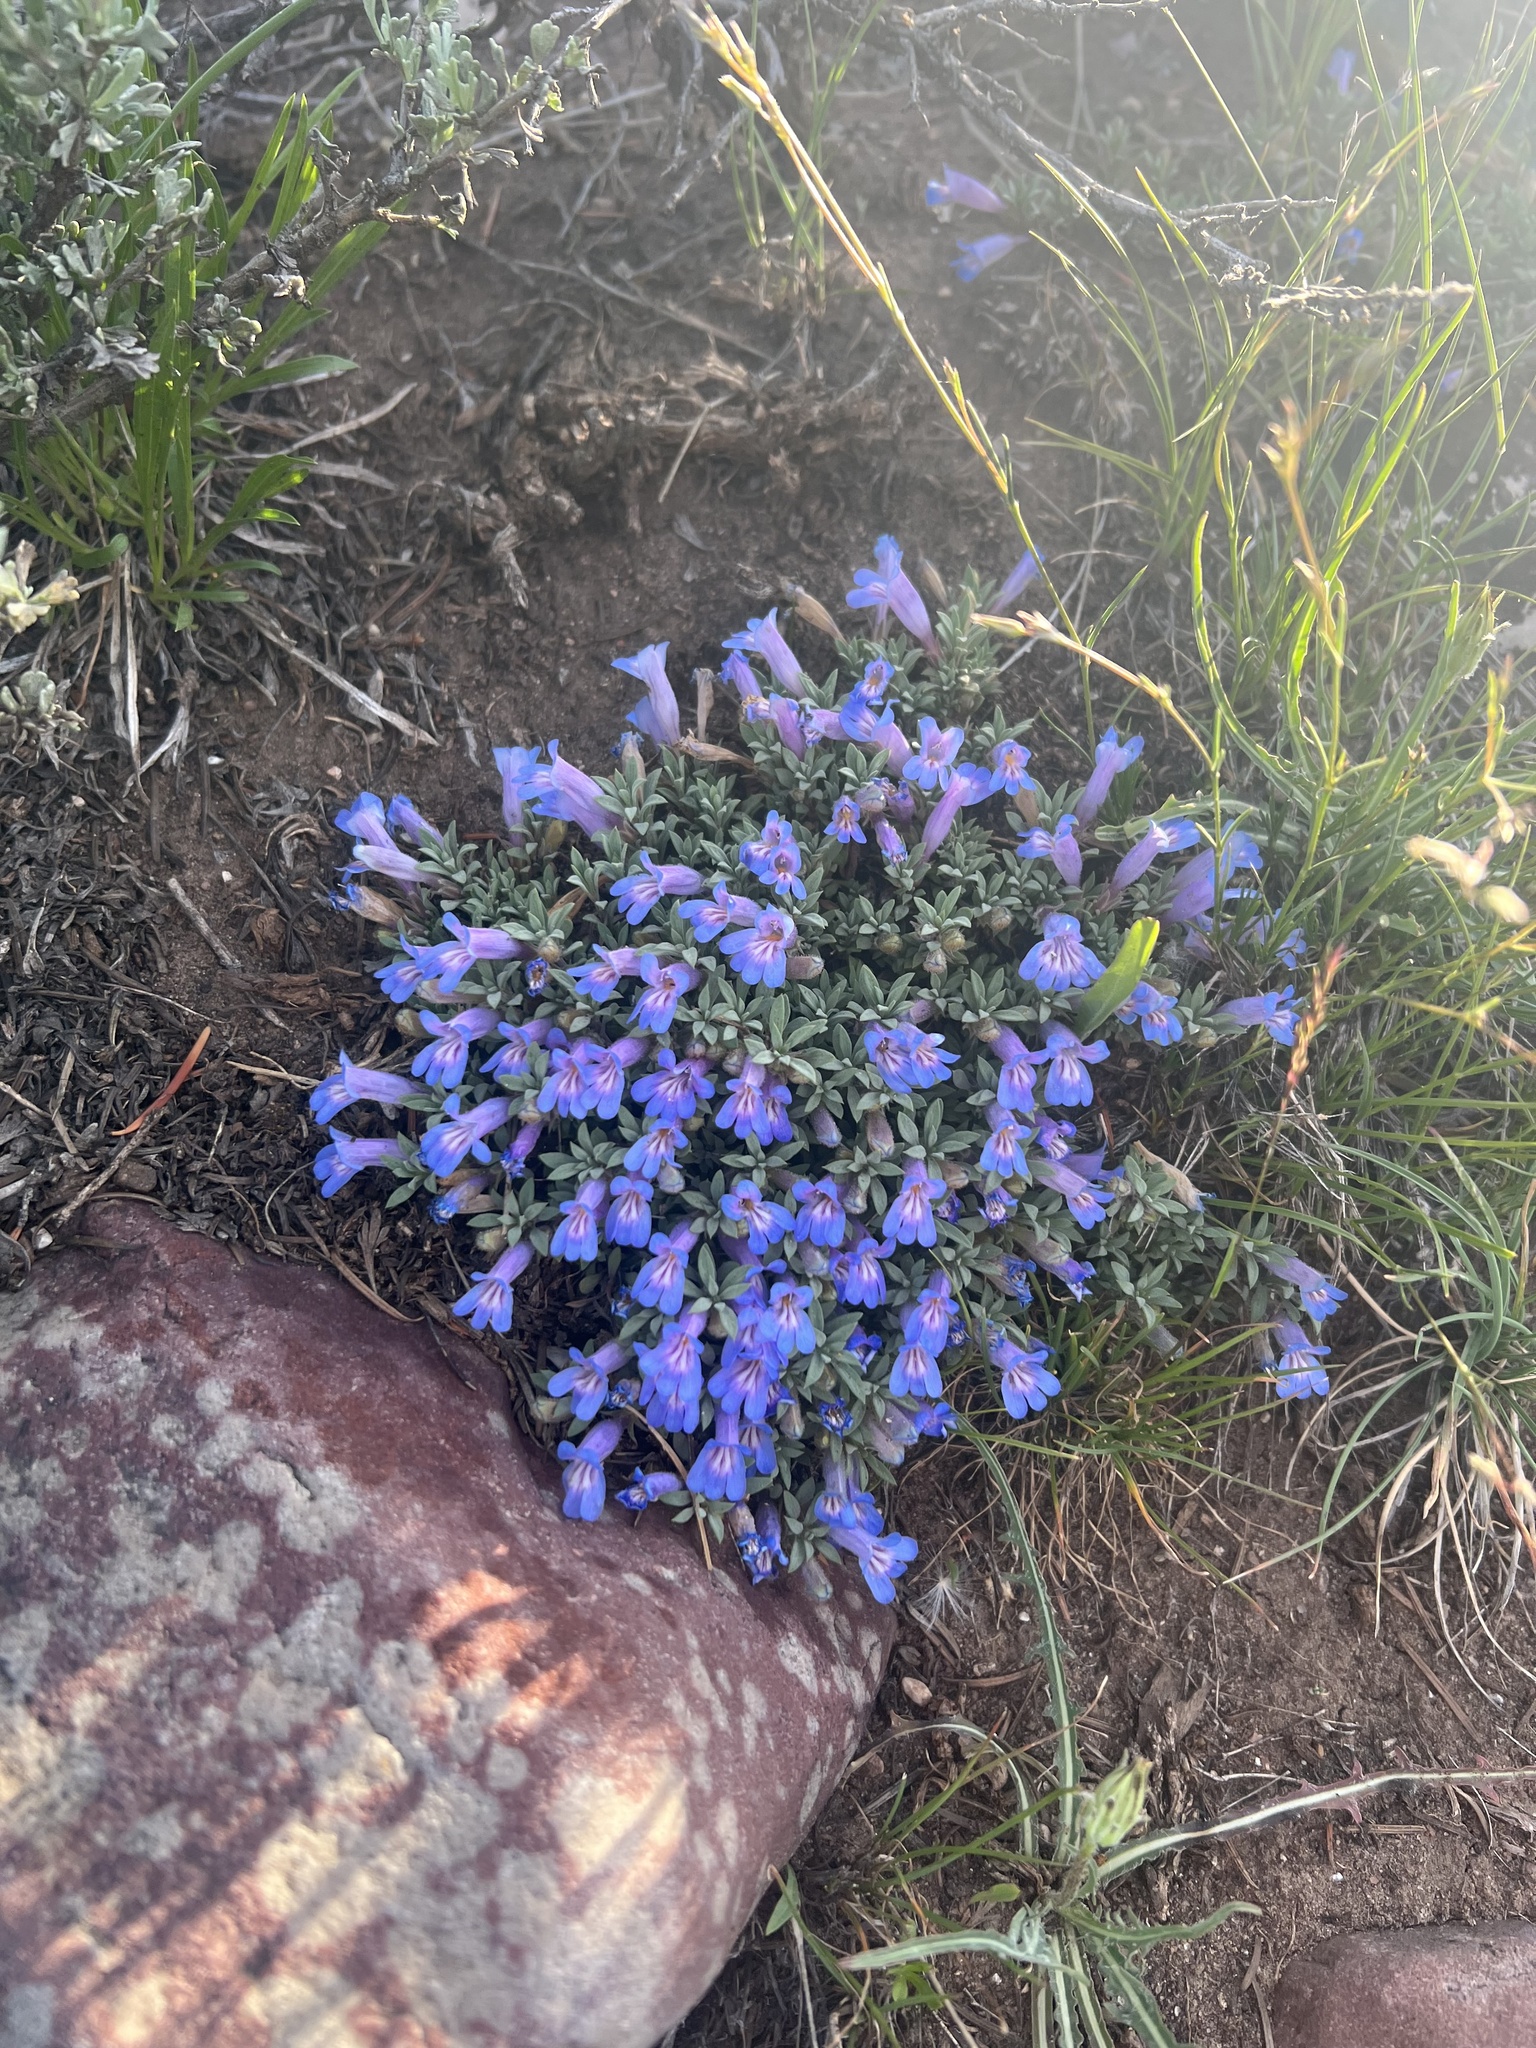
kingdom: Plantae
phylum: Tracheophyta
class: Magnoliopsida
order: Lamiales
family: Plantaginaceae
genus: Penstemon
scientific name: Penstemon caespitosus
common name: Mat penstemon
